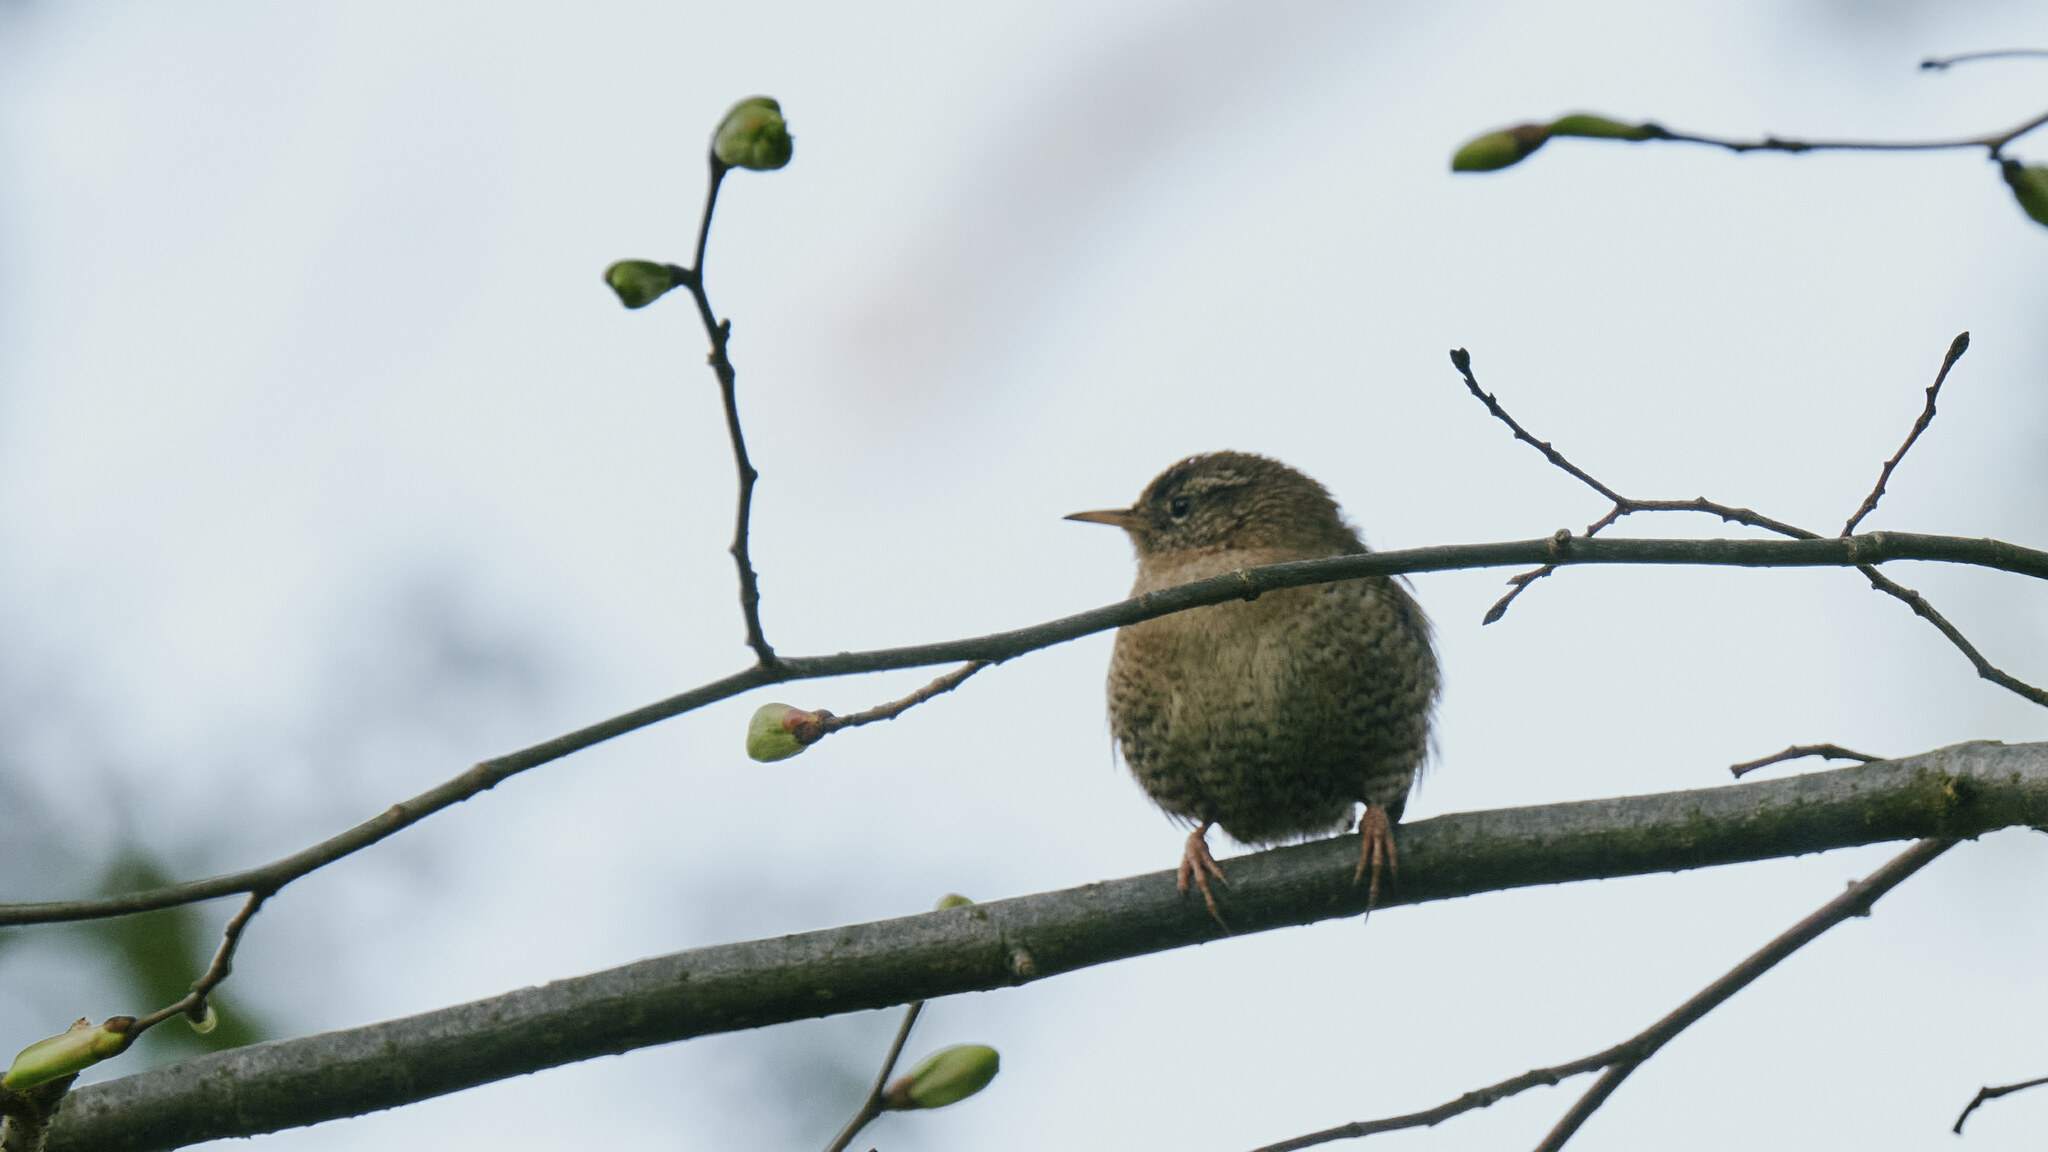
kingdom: Animalia
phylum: Chordata
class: Aves
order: Passeriformes
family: Troglodytidae
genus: Troglodytes
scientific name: Troglodytes troglodytes
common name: Eurasian wren
